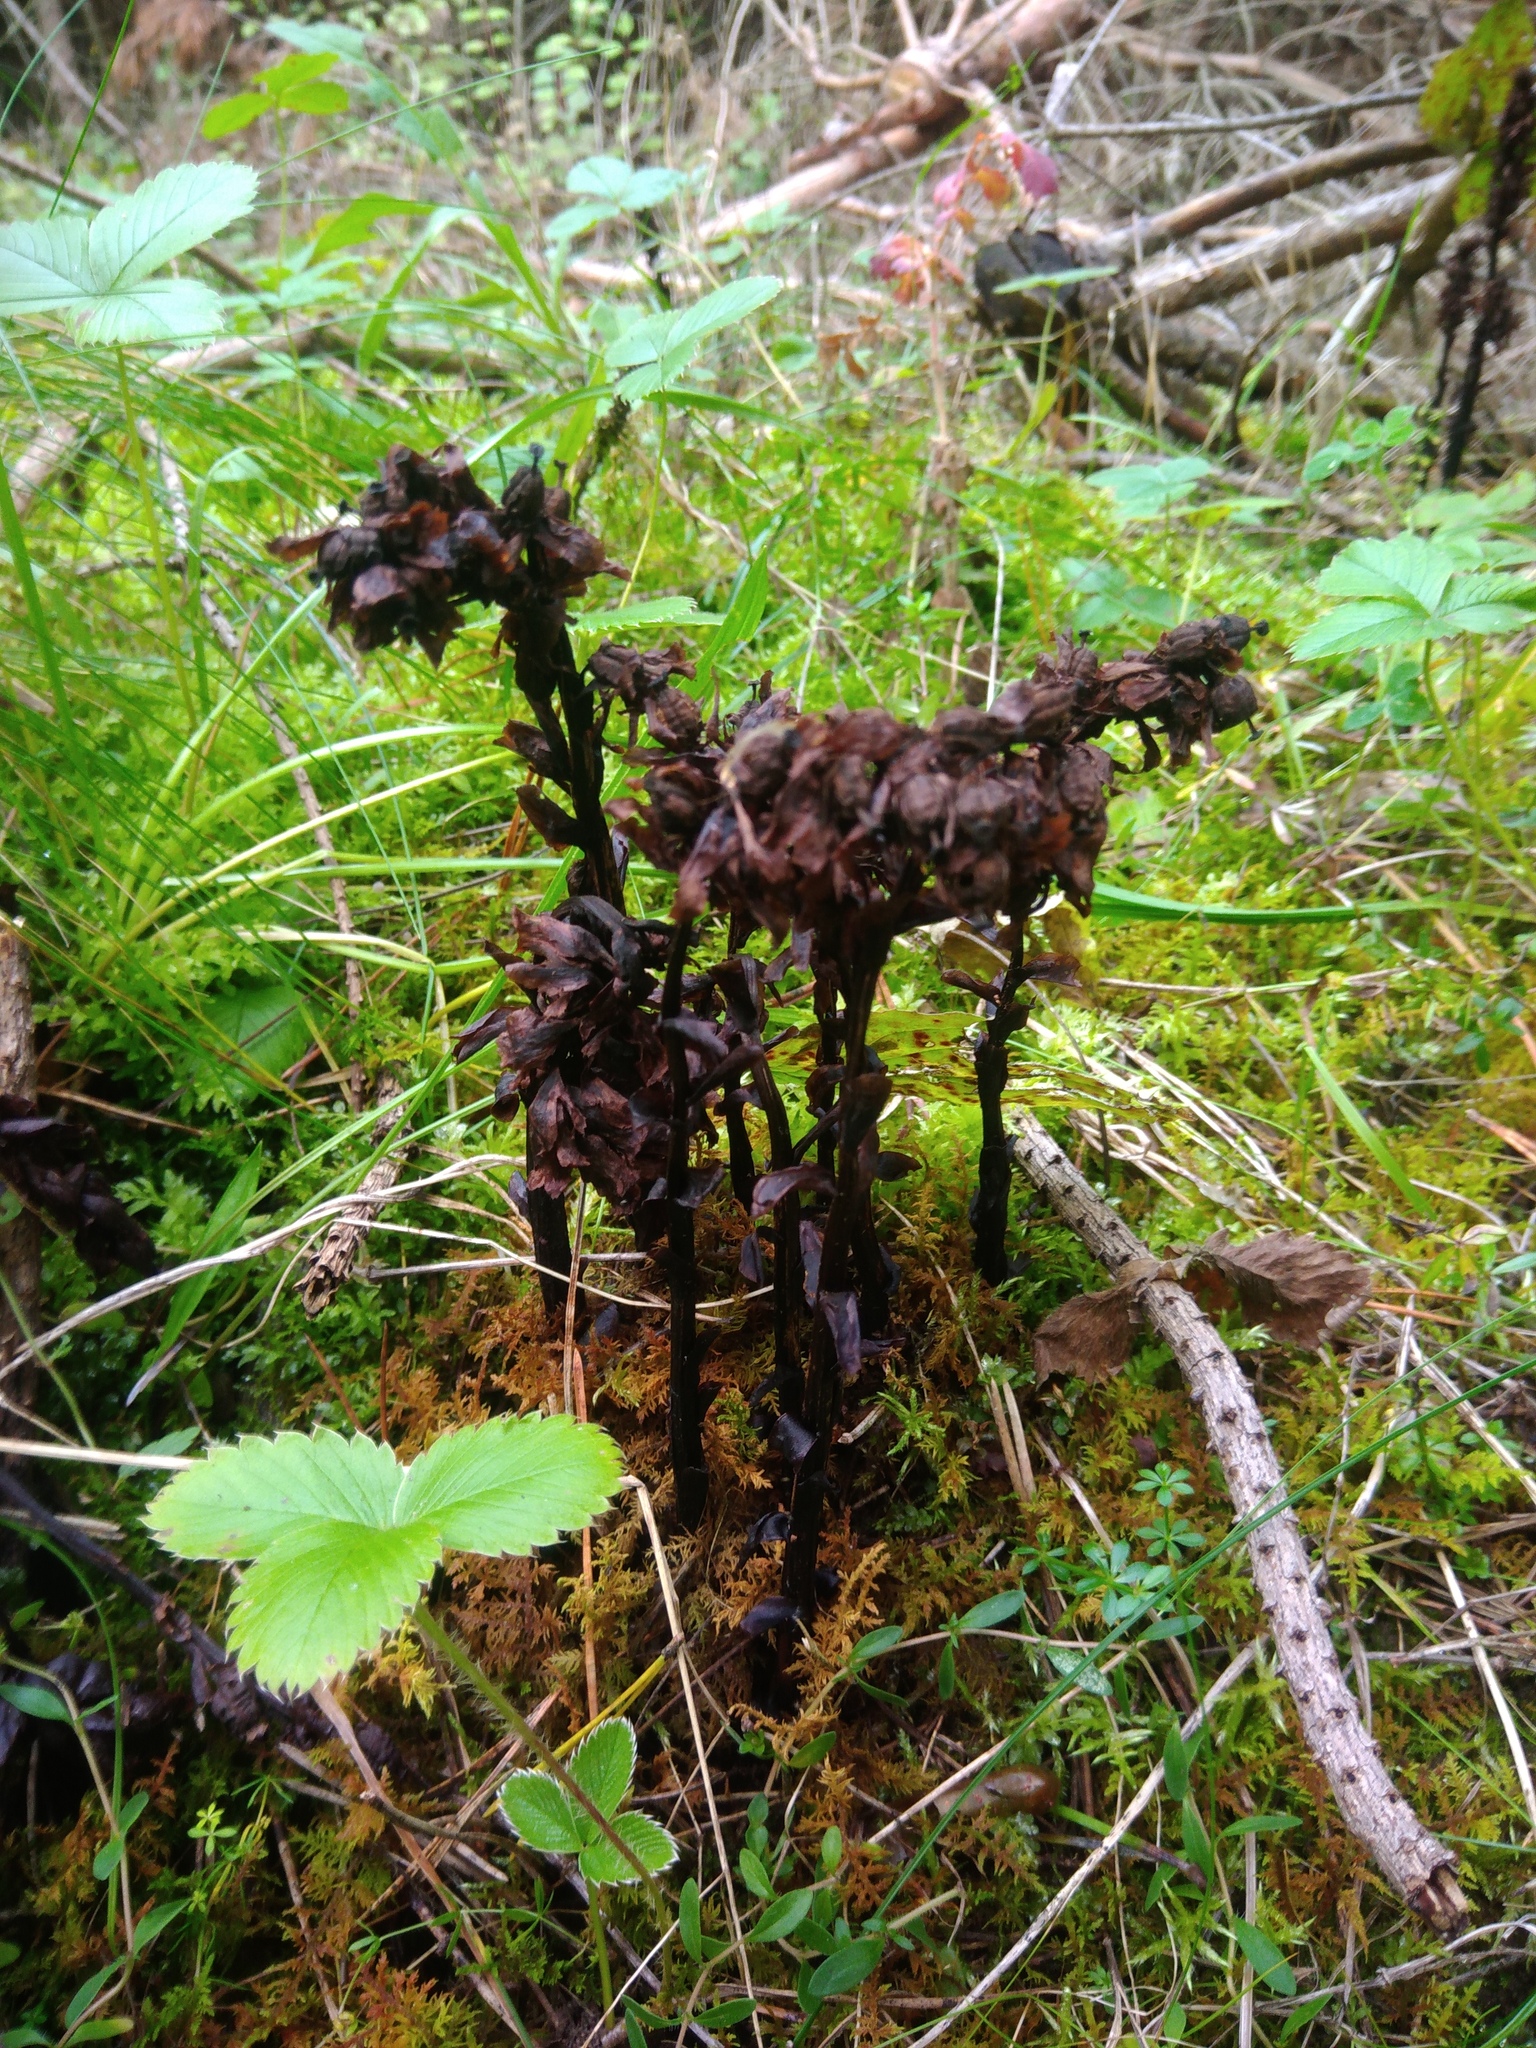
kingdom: Plantae
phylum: Tracheophyta
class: Magnoliopsida
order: Ericales
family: Ericaceae
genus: Hypopitys
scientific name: Hypopitys monotropa
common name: Yellow bird's-nest
